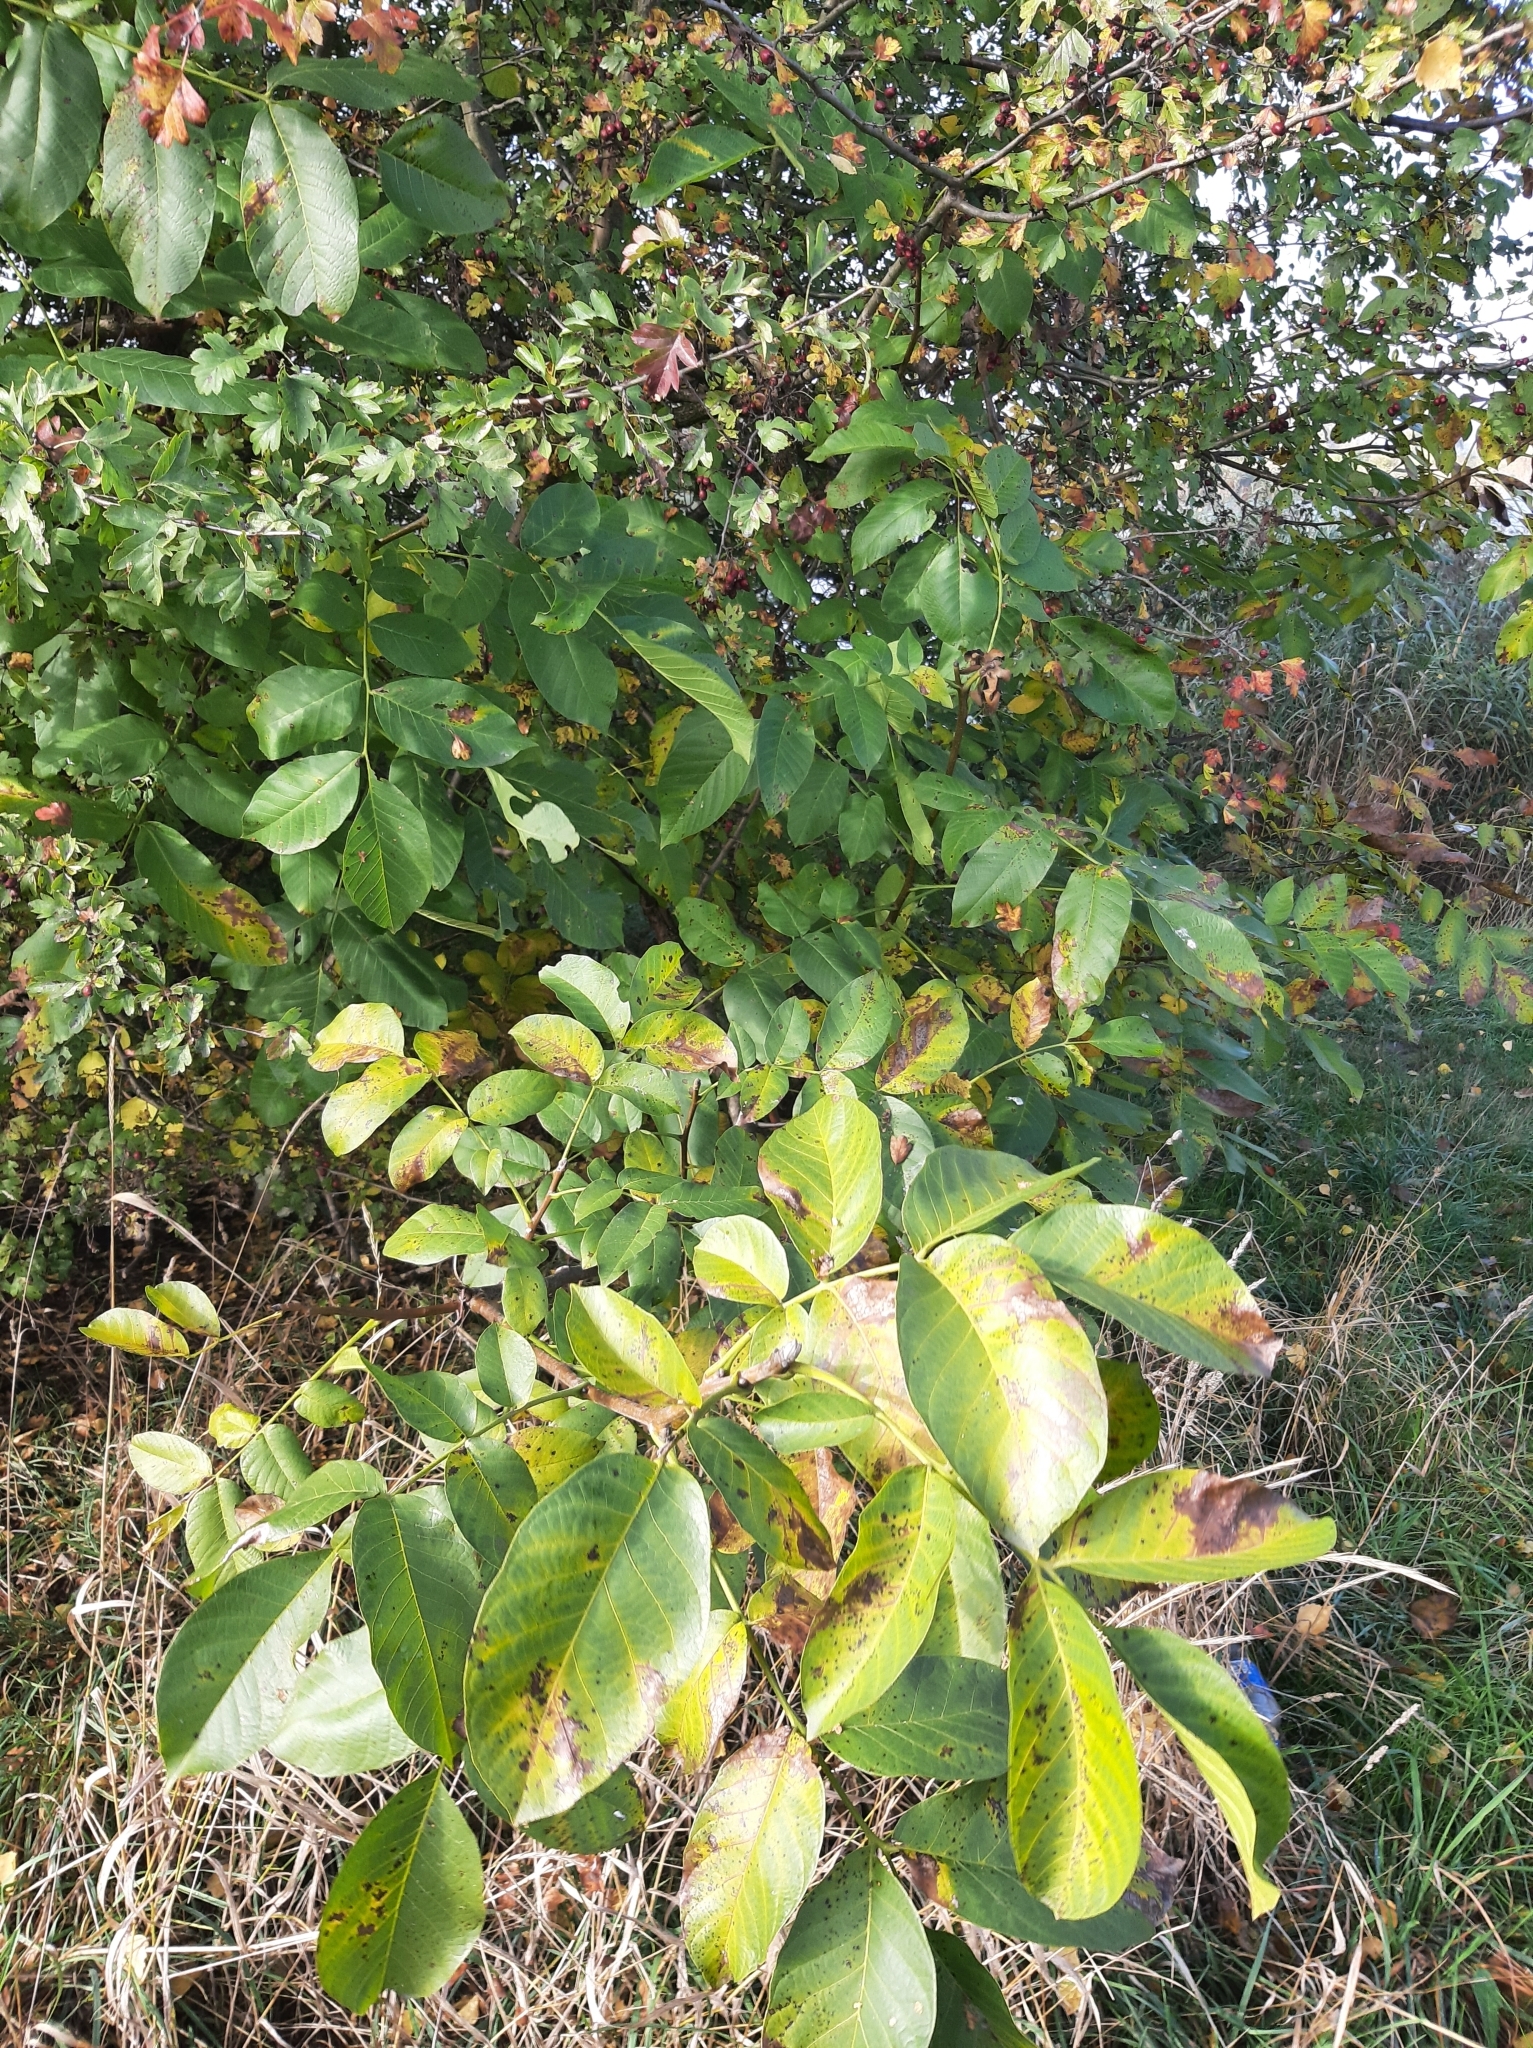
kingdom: Plantae
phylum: Tracheophyta
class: Magnoliopsida
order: Fagales
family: Juglandaceae
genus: Juglans
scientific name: Juglans regia
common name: Walnut
